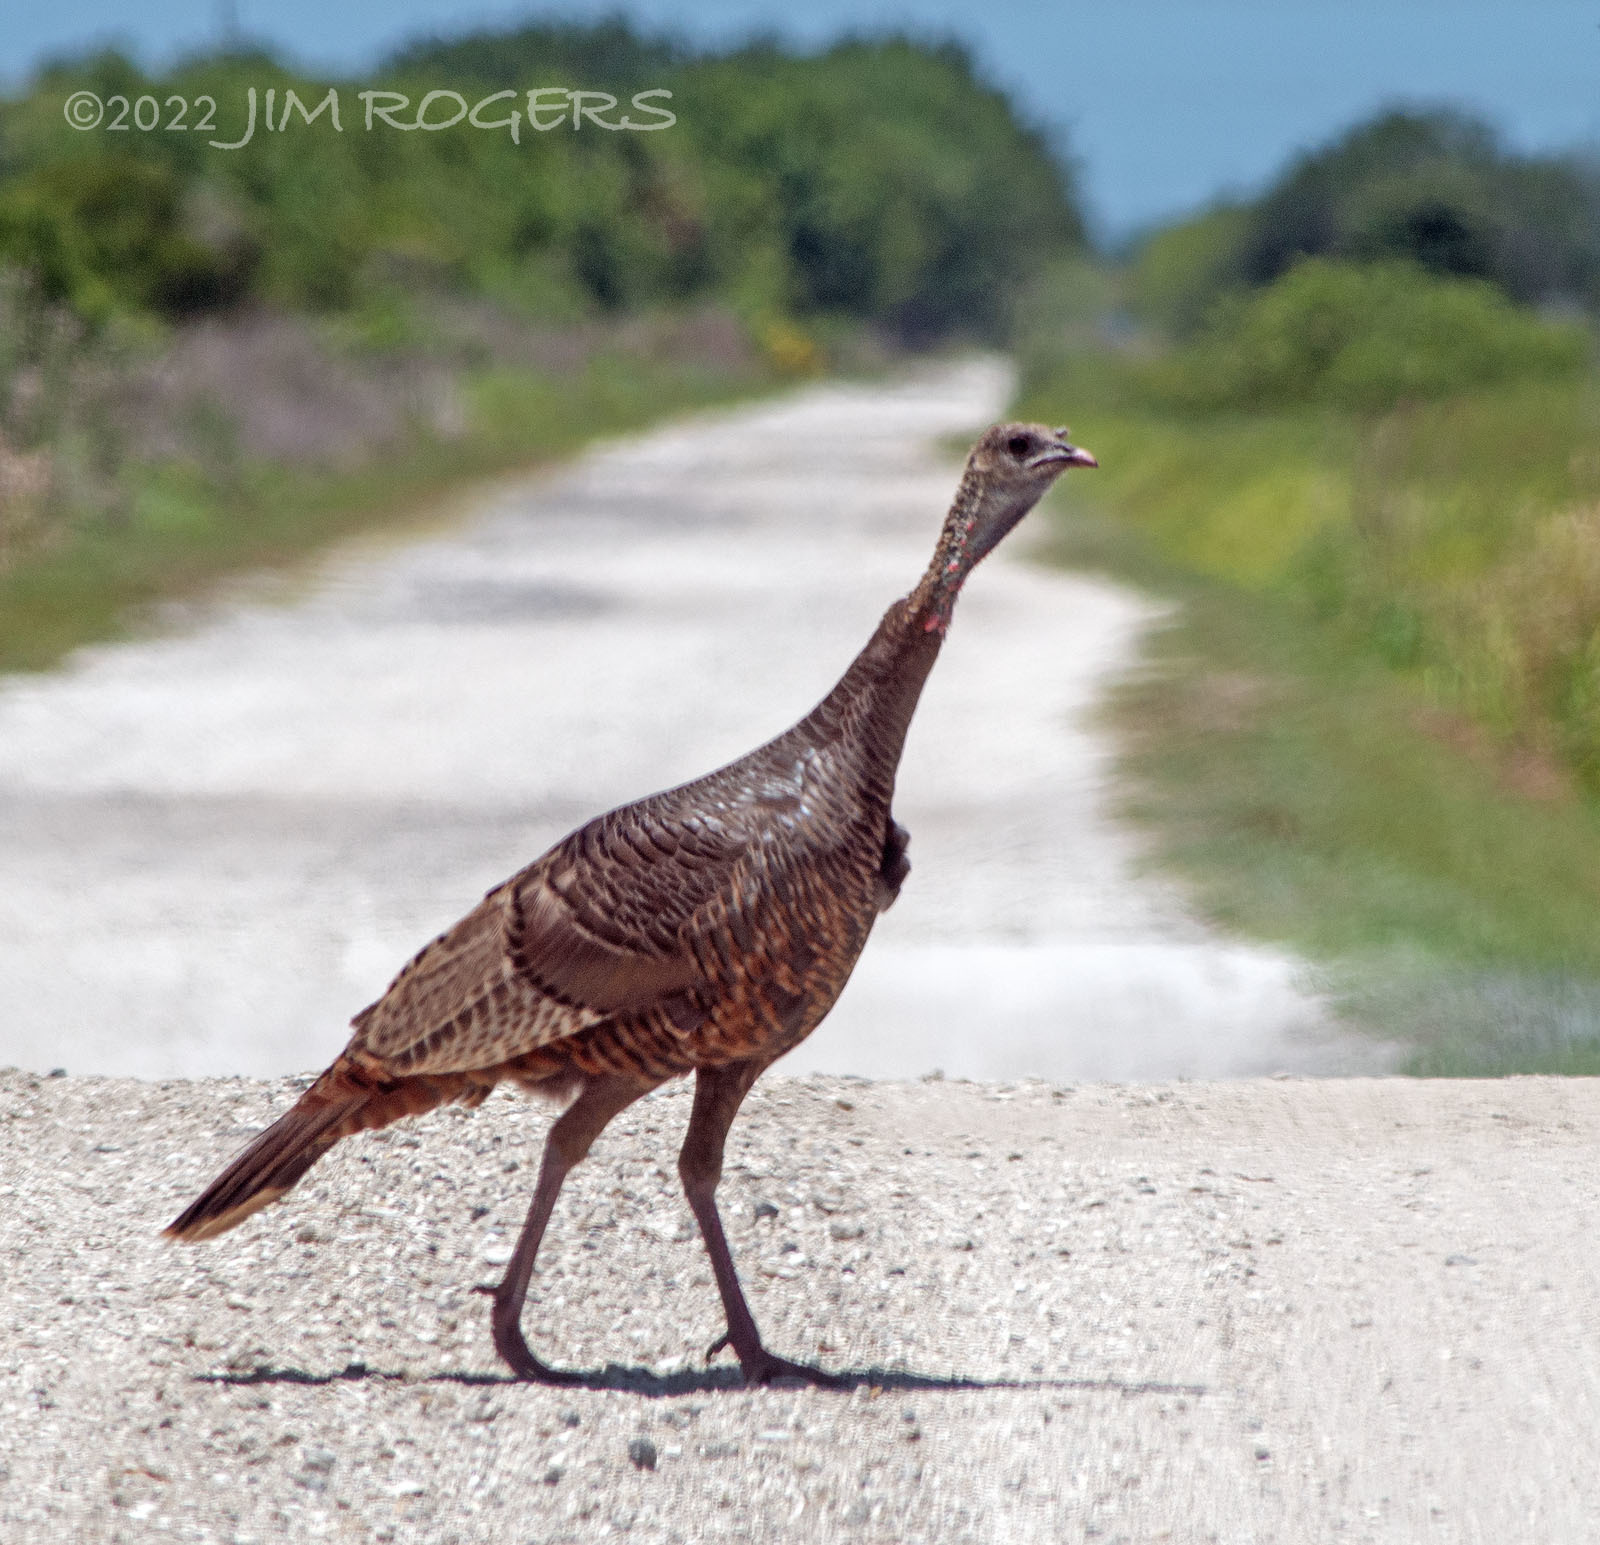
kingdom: Animalia
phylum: Chordata
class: Aves
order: Galliformes
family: Phasianidae
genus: Meleagris
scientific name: Meleagris gallopavo
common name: Wild turkey
